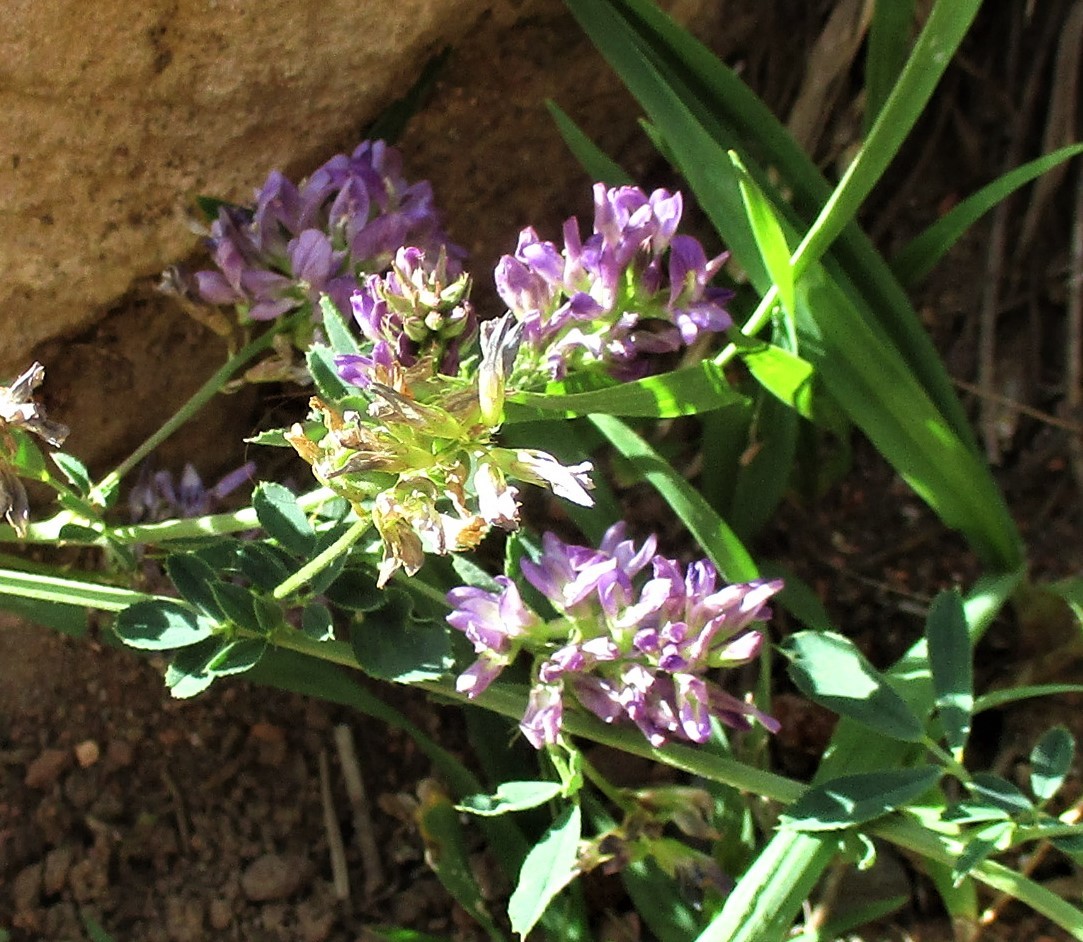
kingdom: Plantae
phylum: Tracheophyta
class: Magnoliopsida
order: Fabales
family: Fabaceae
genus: Medicago
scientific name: Medicago sativa
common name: Alfalfa
